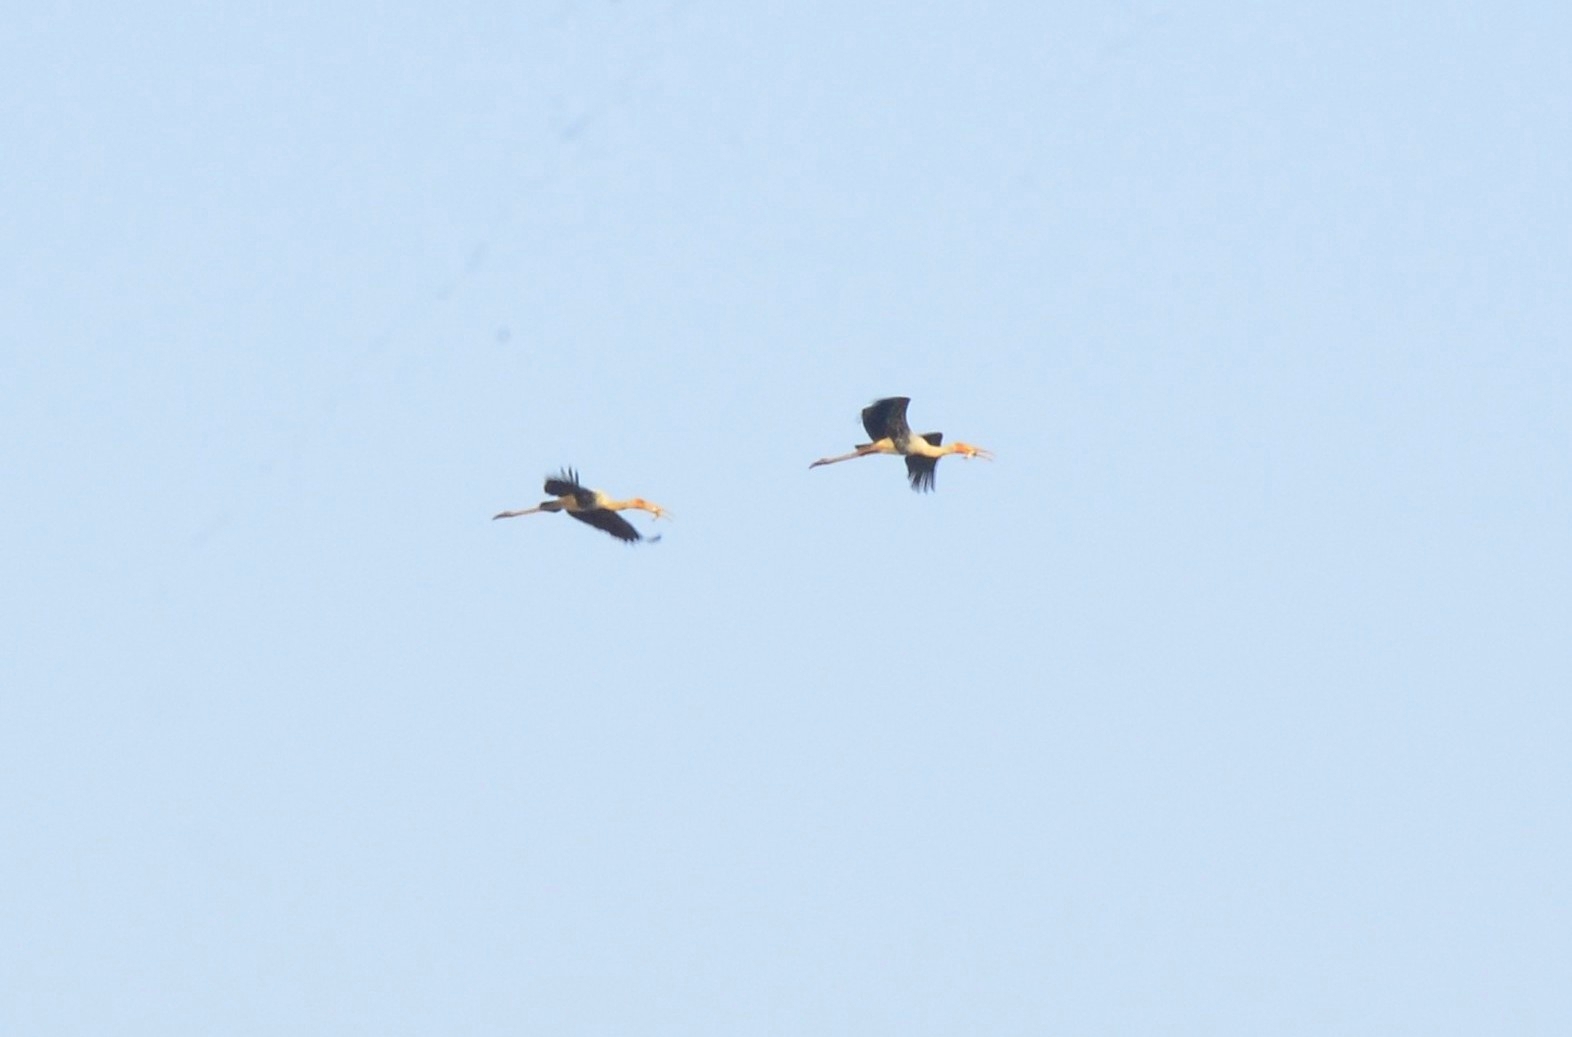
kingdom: Animalia
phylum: Chordata
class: Aves
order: Ciconiiformes
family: Ciconiidae
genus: Mycteria
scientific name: Mycteria leucocephala
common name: Painted stork
